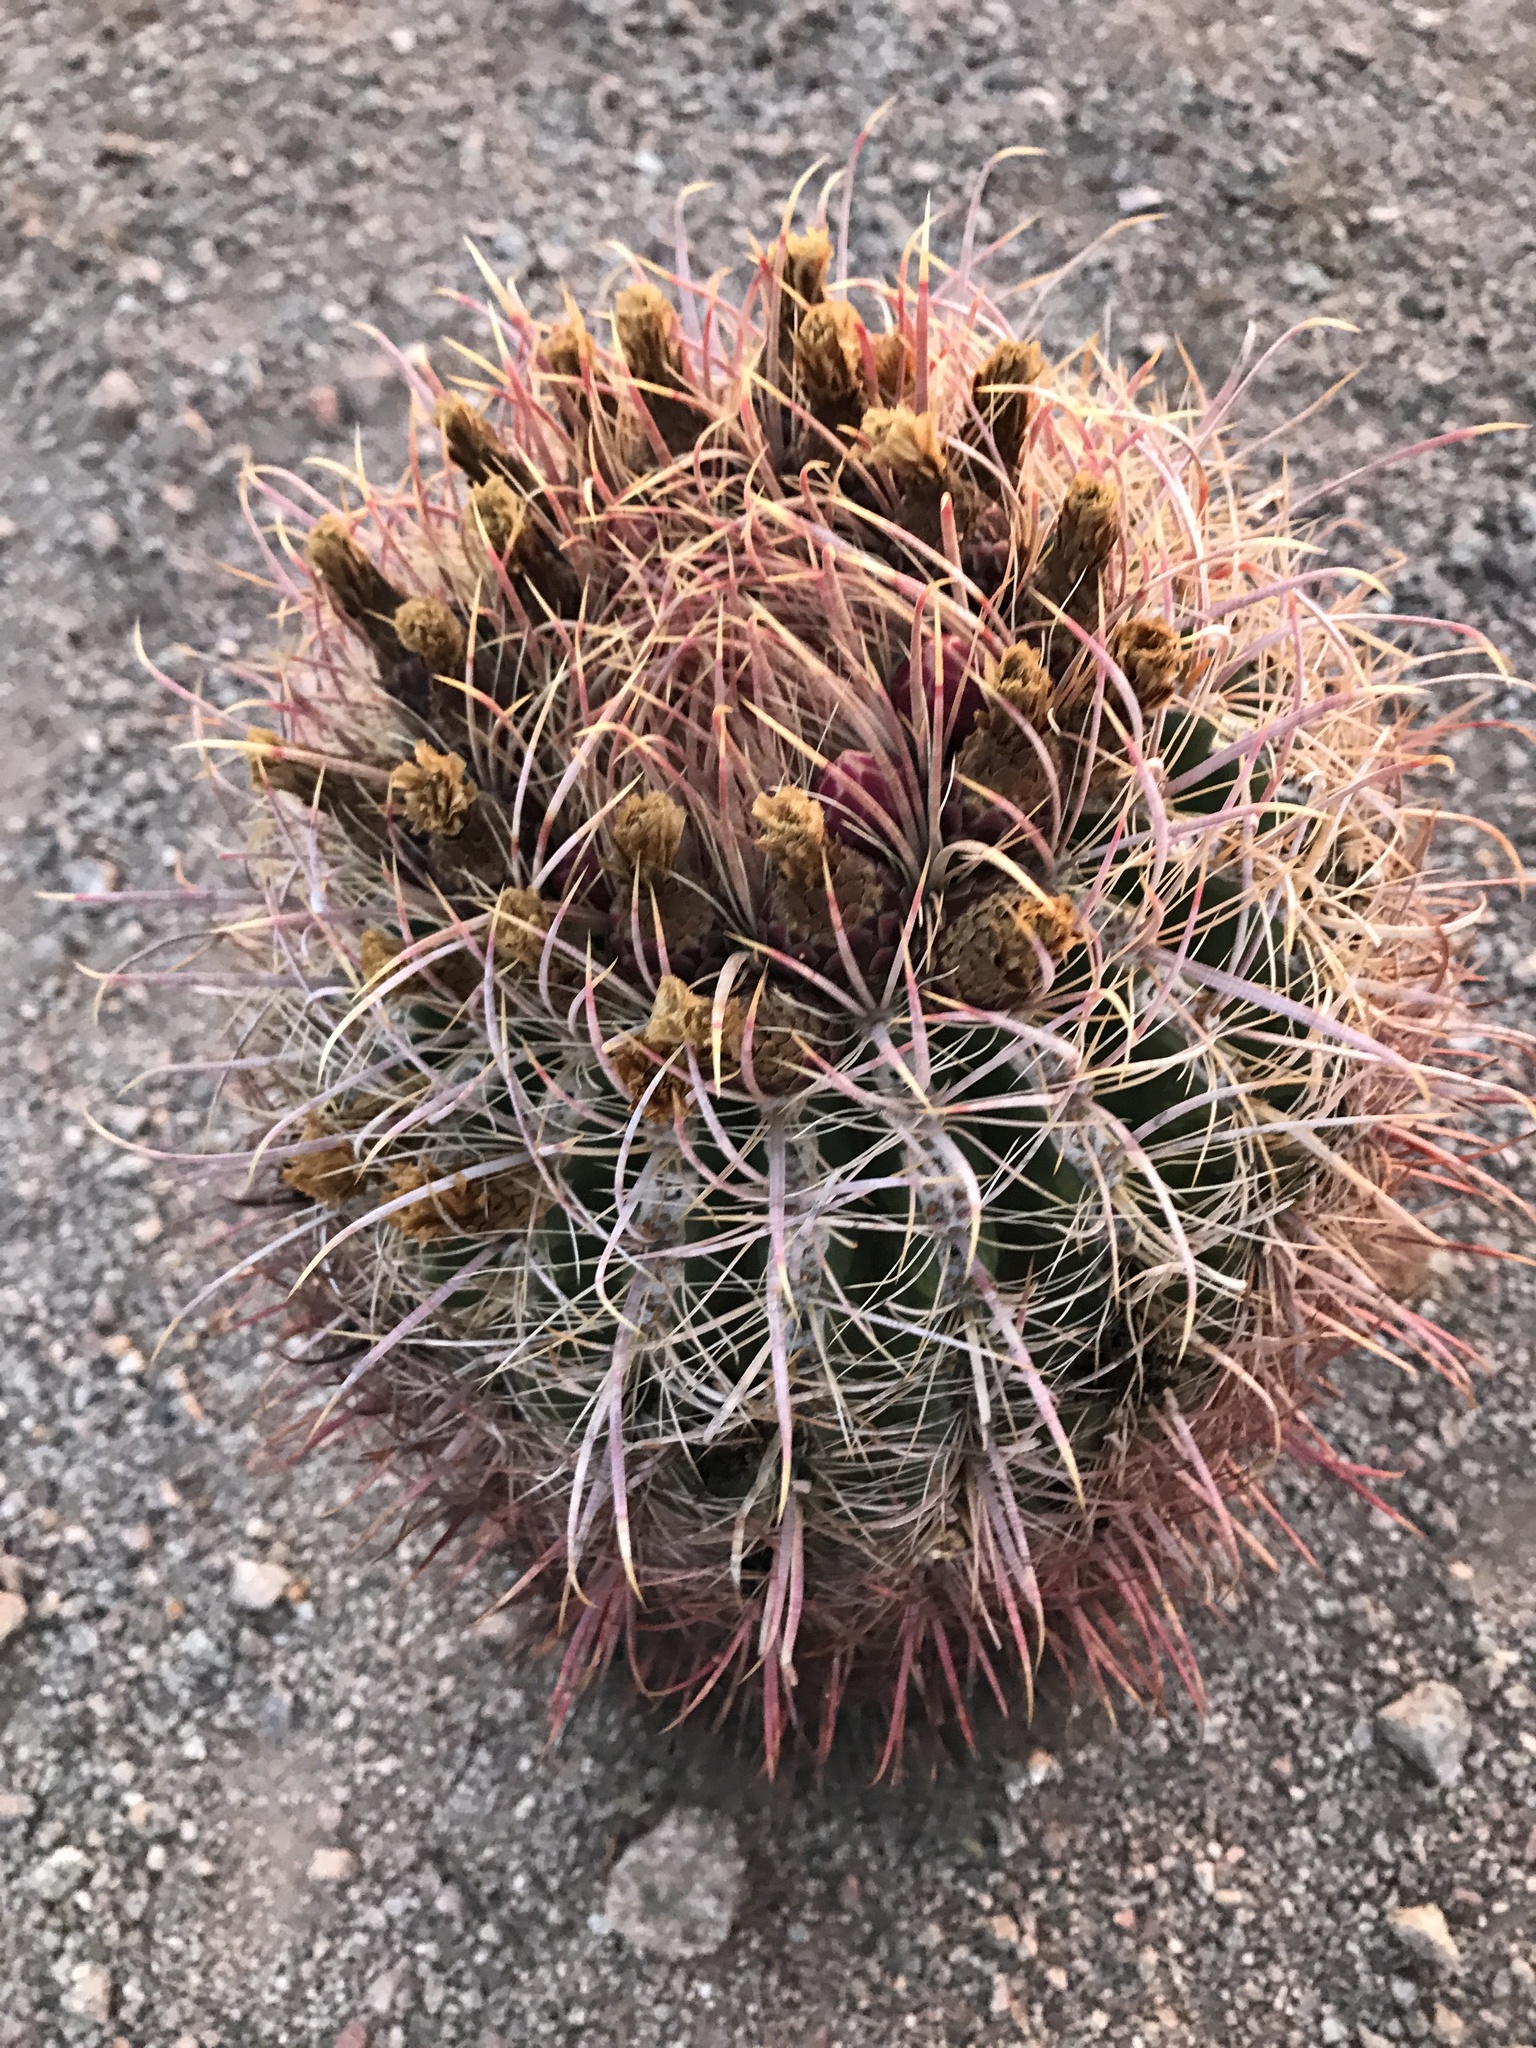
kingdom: Plantae
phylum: Tracheophyta
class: Magnoliopsida
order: Caryophyllales
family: Cactaceae
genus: Ferocactus
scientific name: Ferocactus cylindraceus
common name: California barrel cactus
